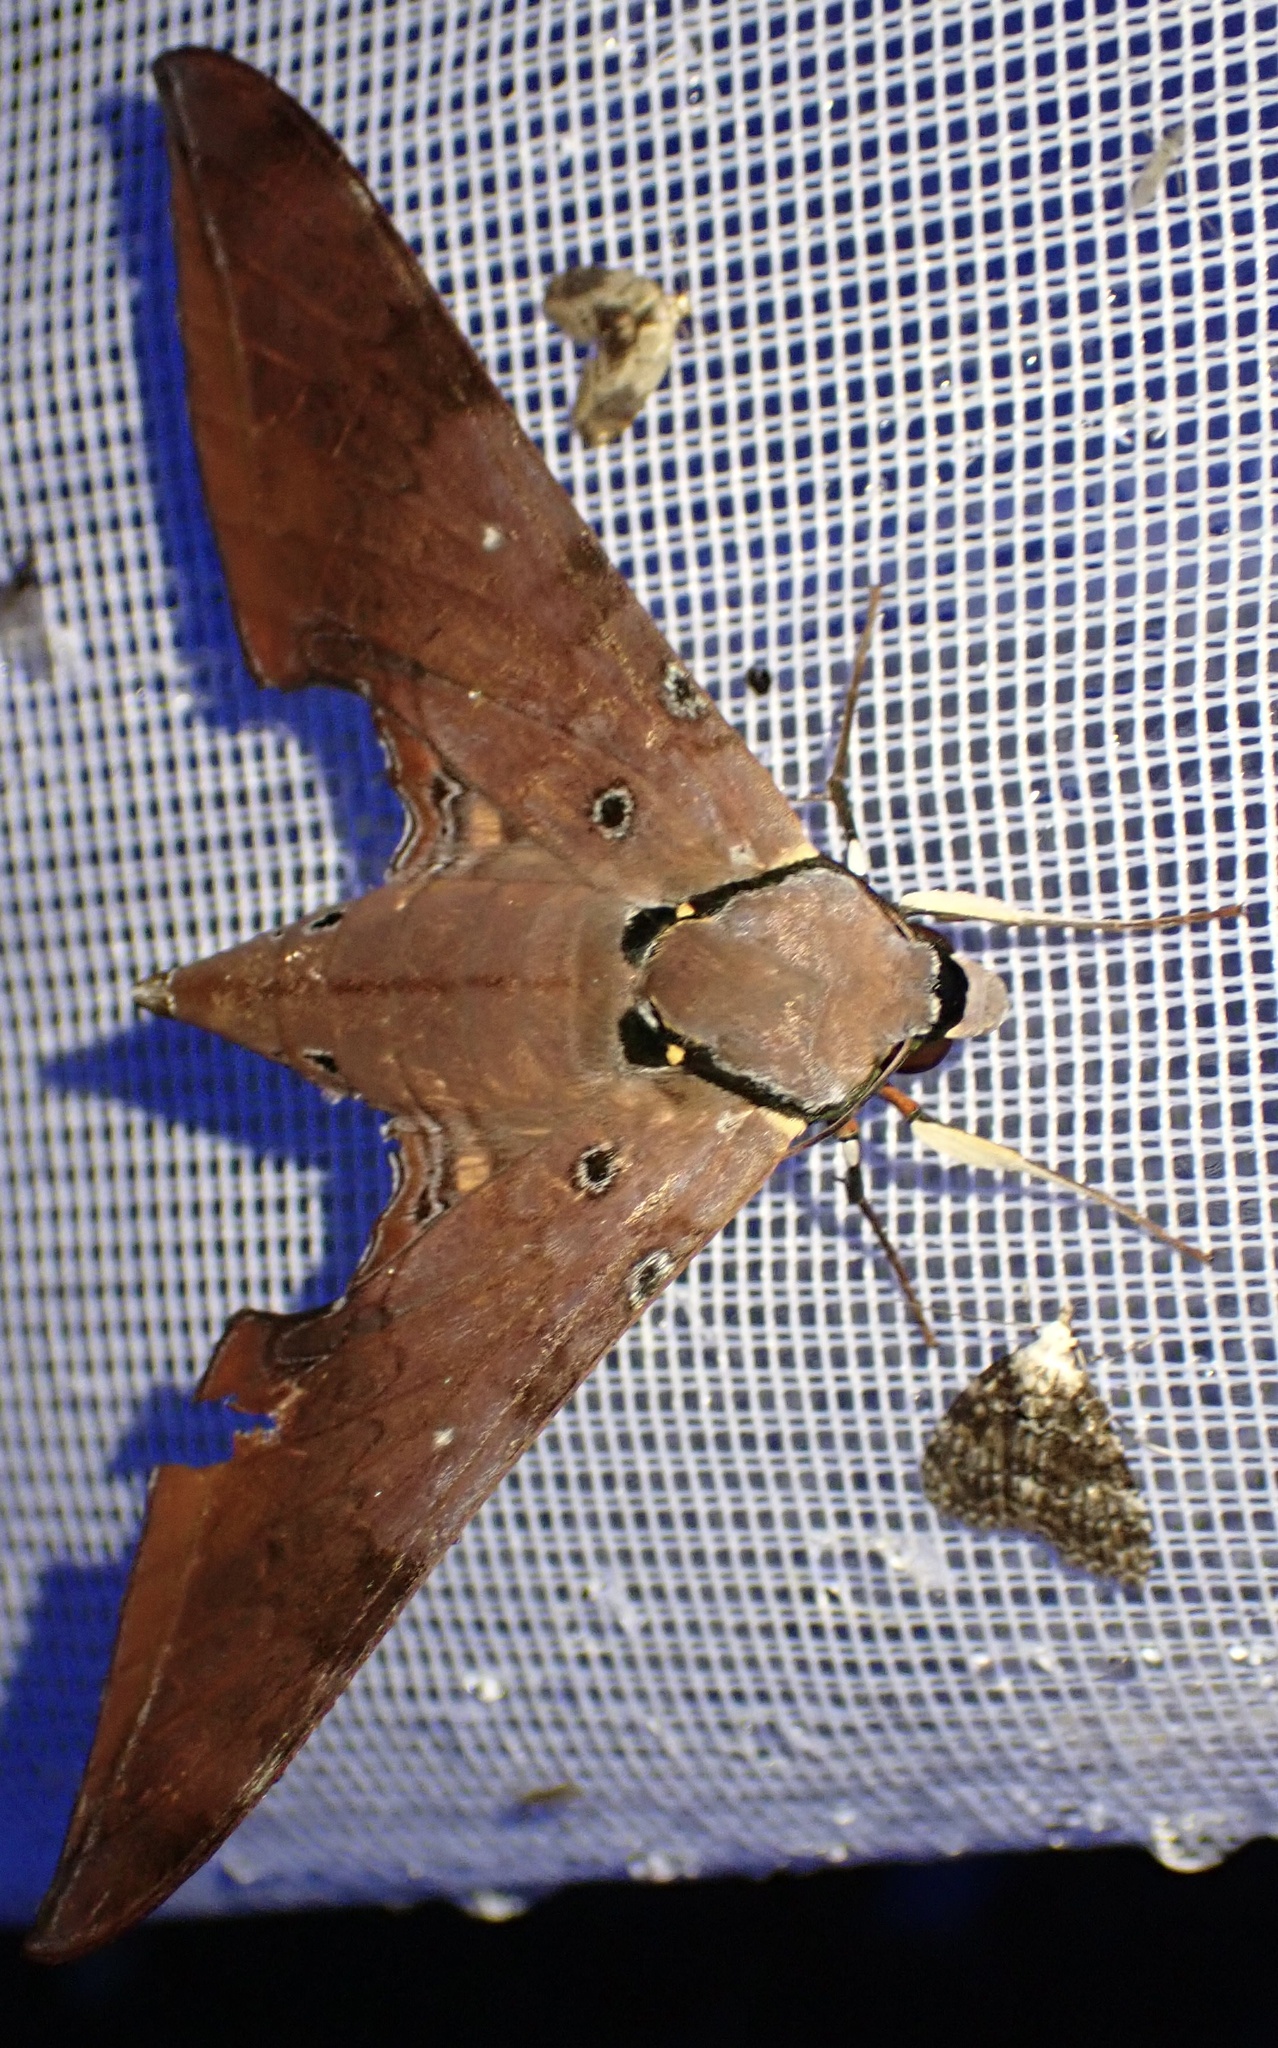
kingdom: Animalia
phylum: Arthropoda
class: Insecta
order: Lepidoptera
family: Sphingidae
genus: Ambulyx
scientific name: Ambulyx moorei
